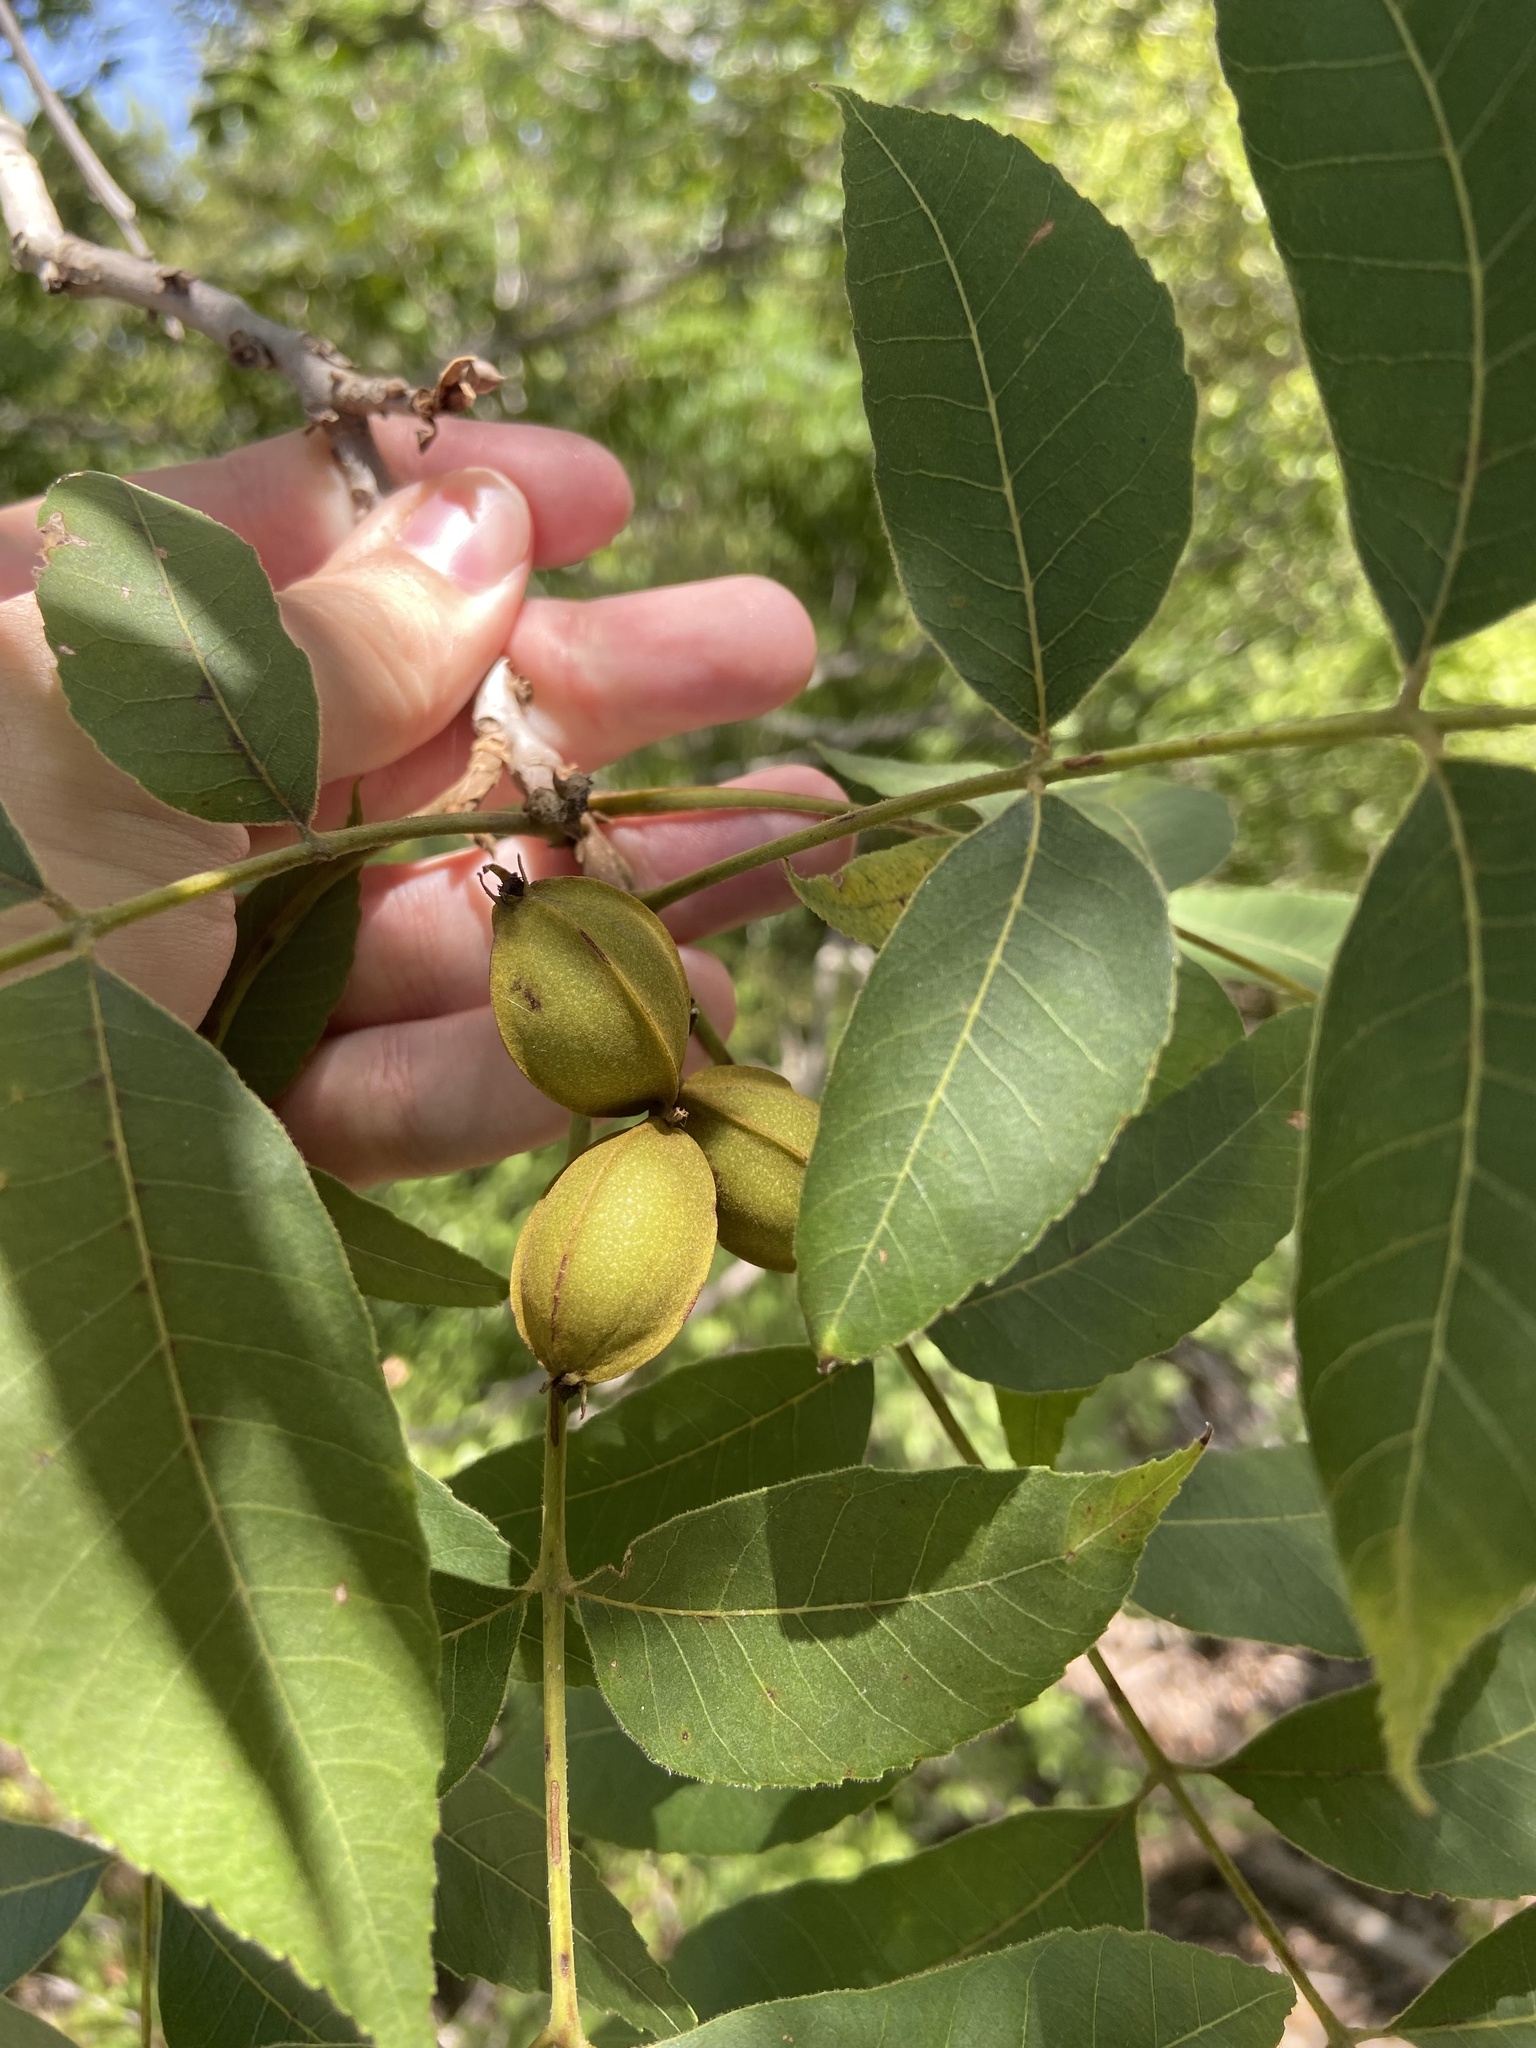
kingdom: Plantae
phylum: Tracheophyta
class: Magnoliopsida
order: Fagales
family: Juglandaceae
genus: Carya
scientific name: Carya illinoinensis
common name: Pecan
